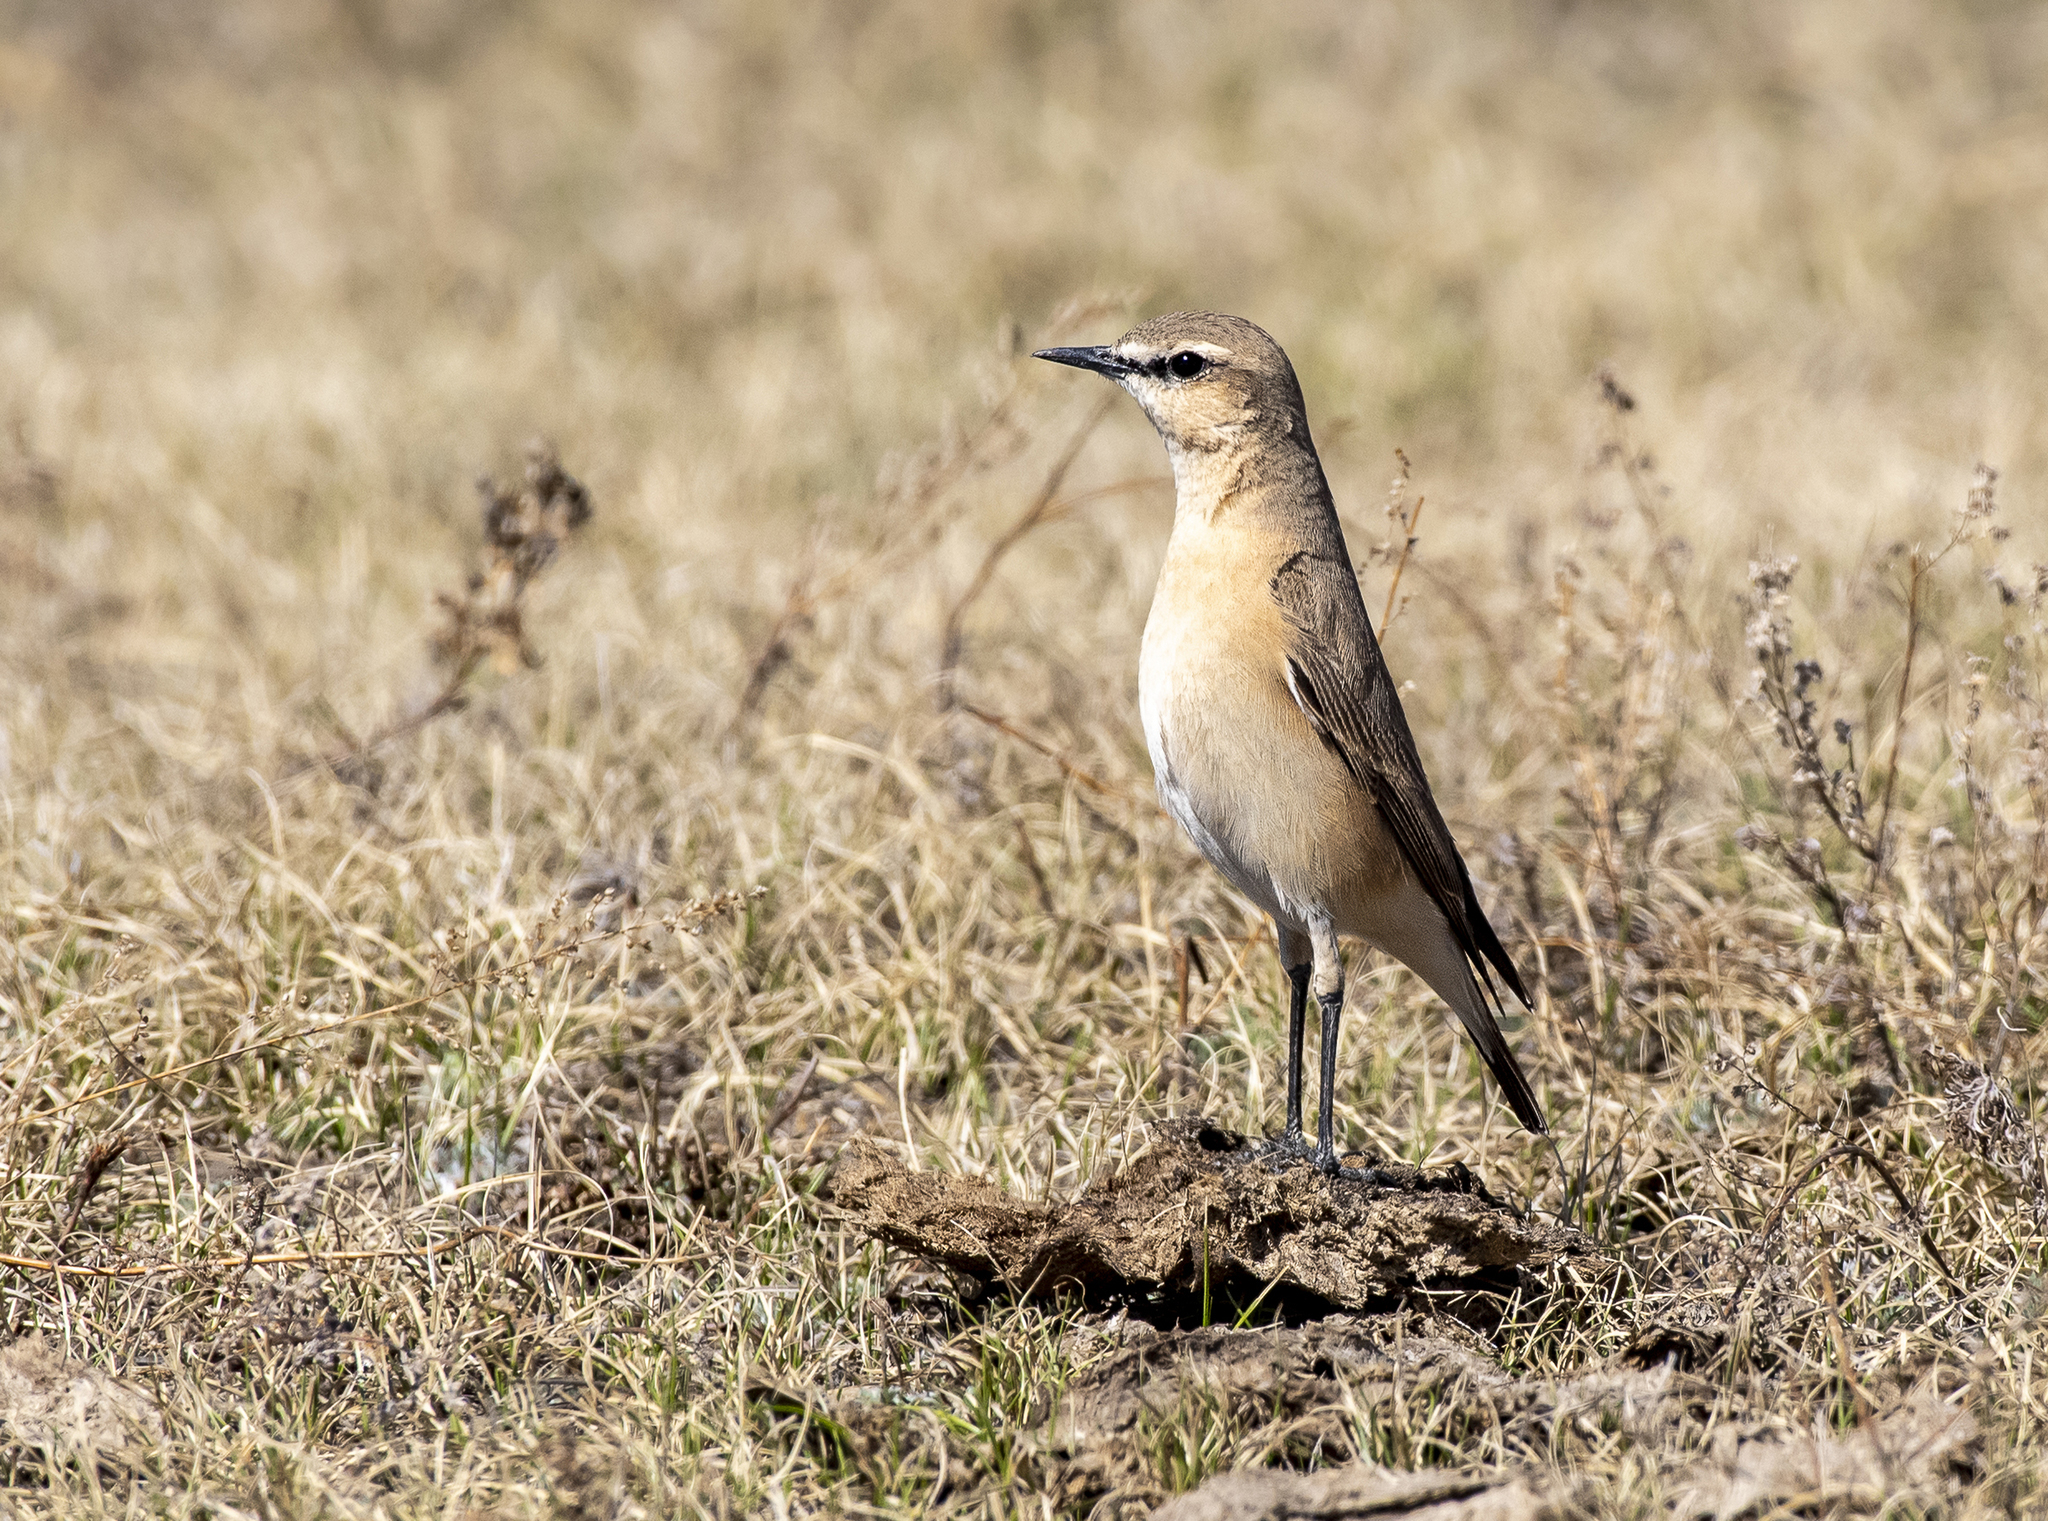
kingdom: Animalia
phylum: Chordata
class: Aves
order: Passeriformes
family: Muscicapidae
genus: Oenanthe
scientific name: Oenanthe isabellina
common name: Isabelline wheatear
